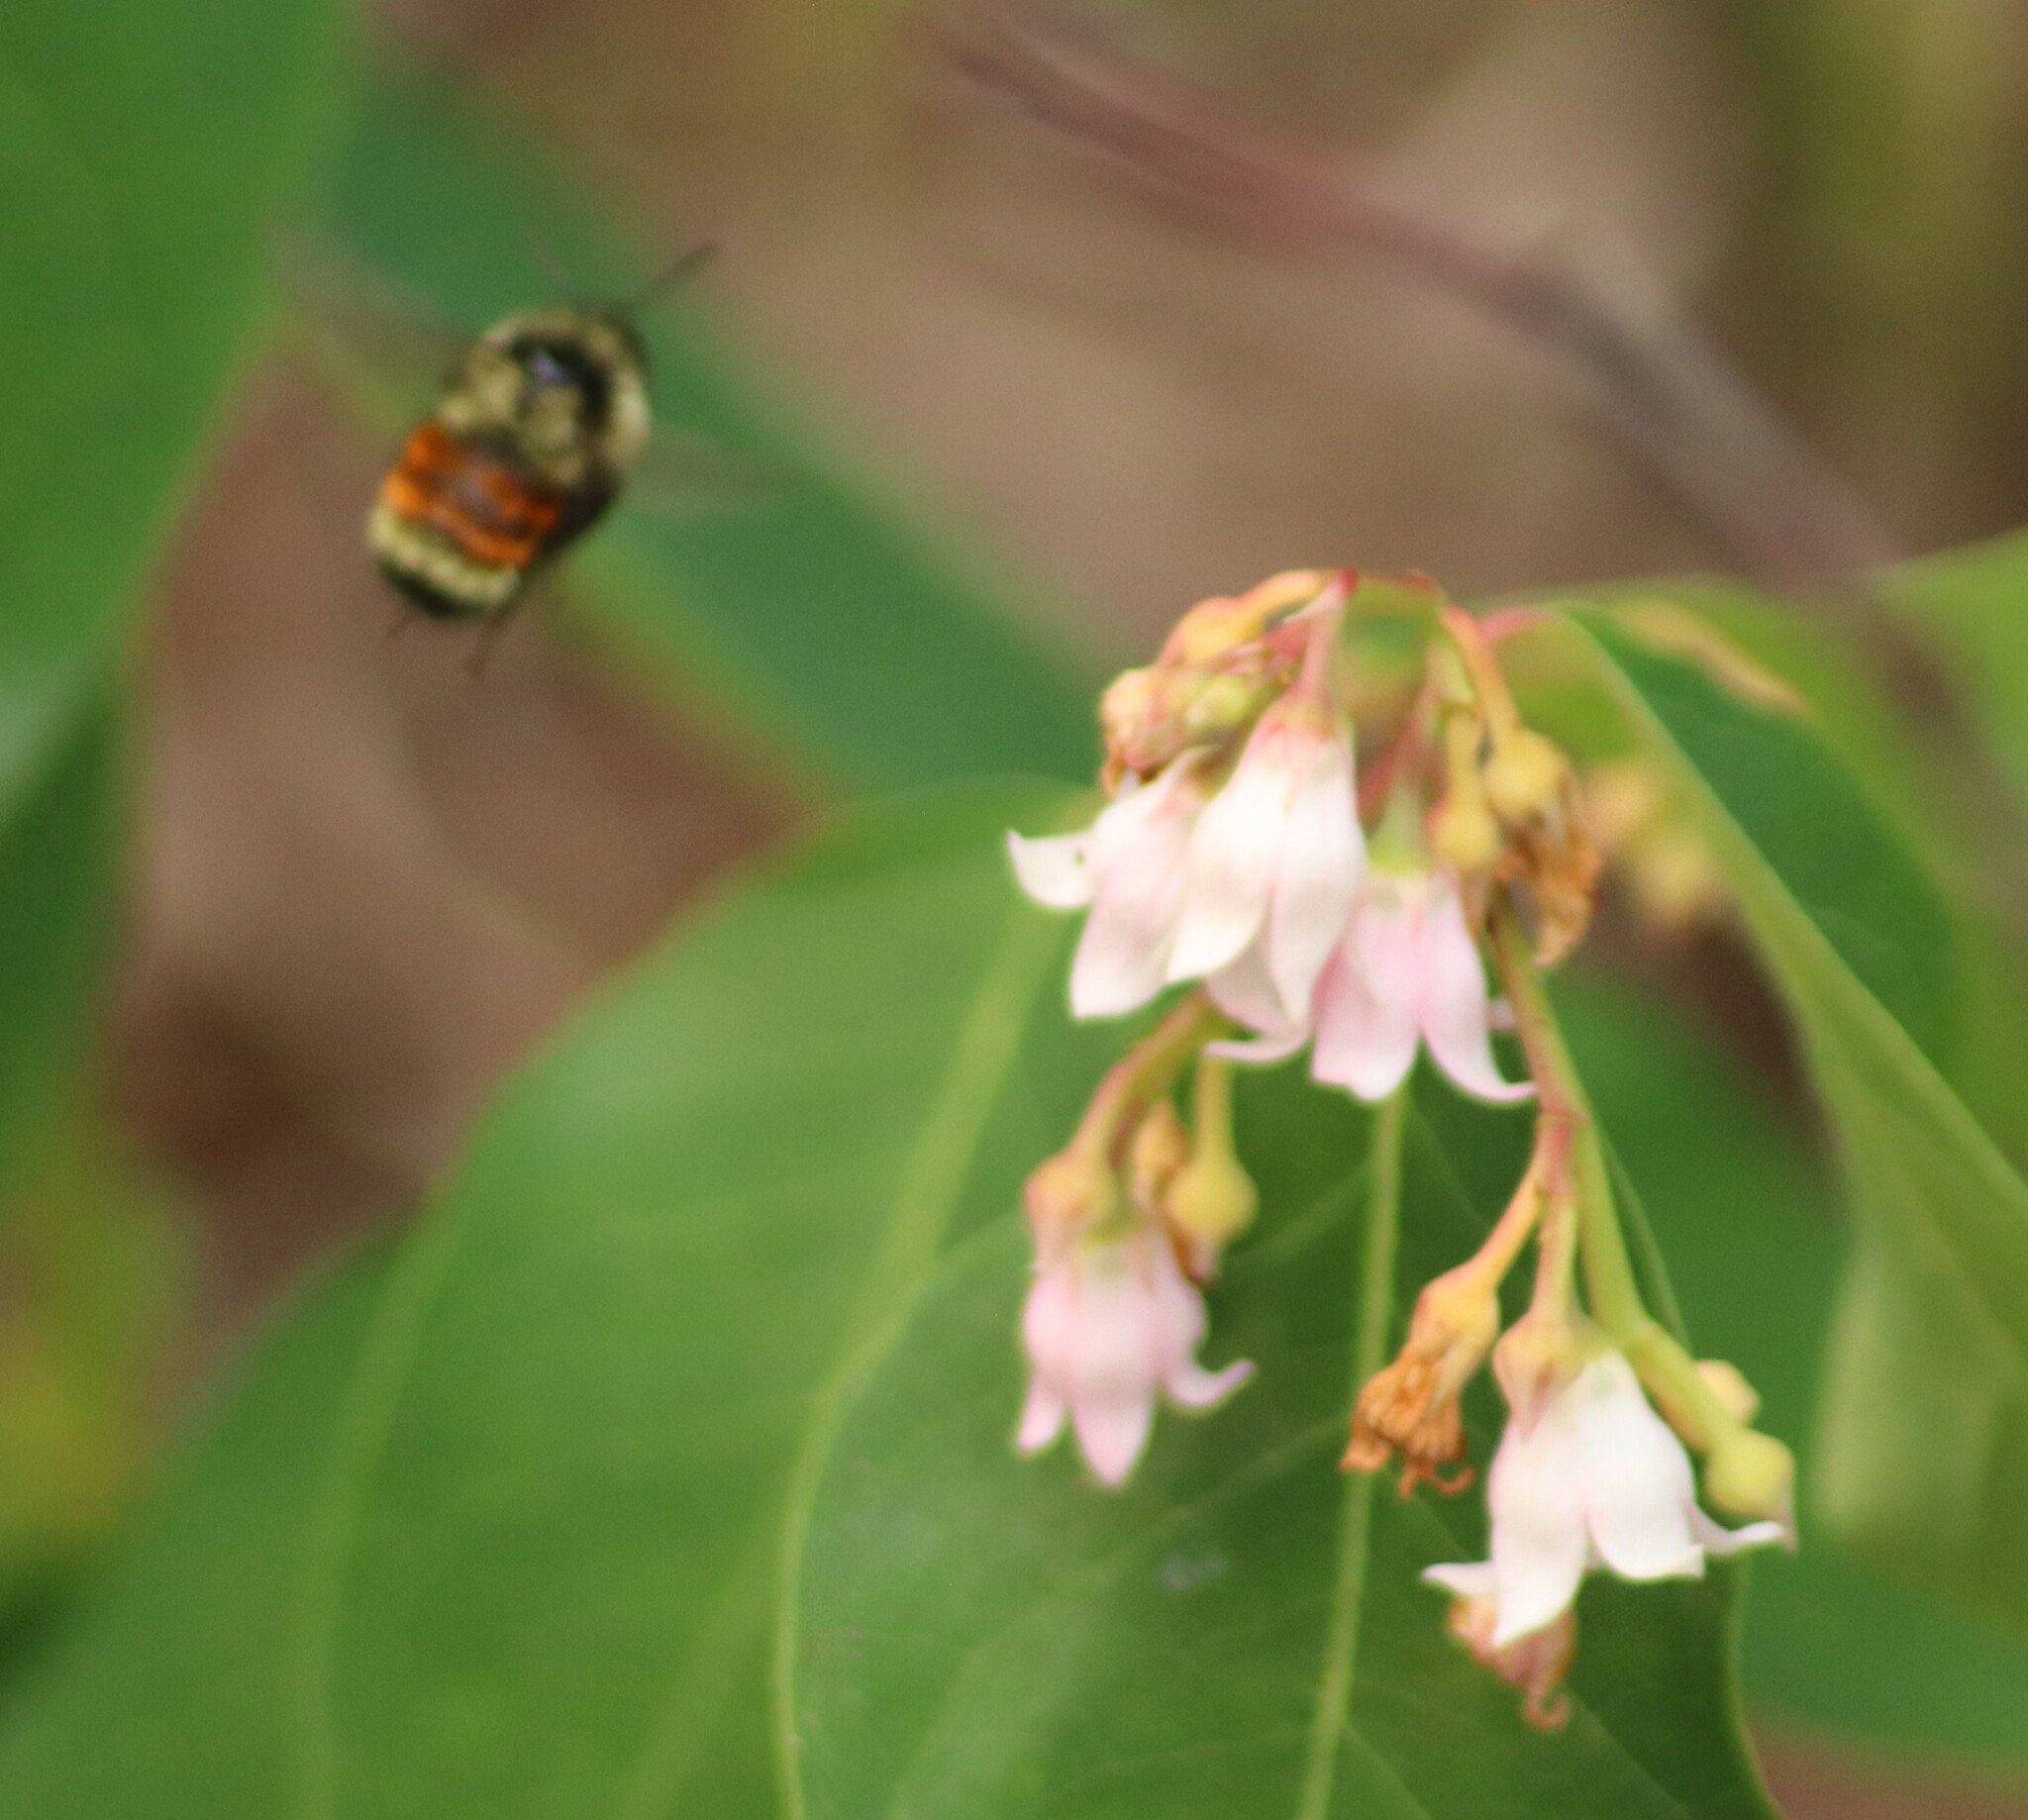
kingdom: Animalia
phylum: Arthropoda
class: Insecta
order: Hymenoptera
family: Apidae
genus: Bombus
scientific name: Bombus ternarius
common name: Tri-colored bumble bee
